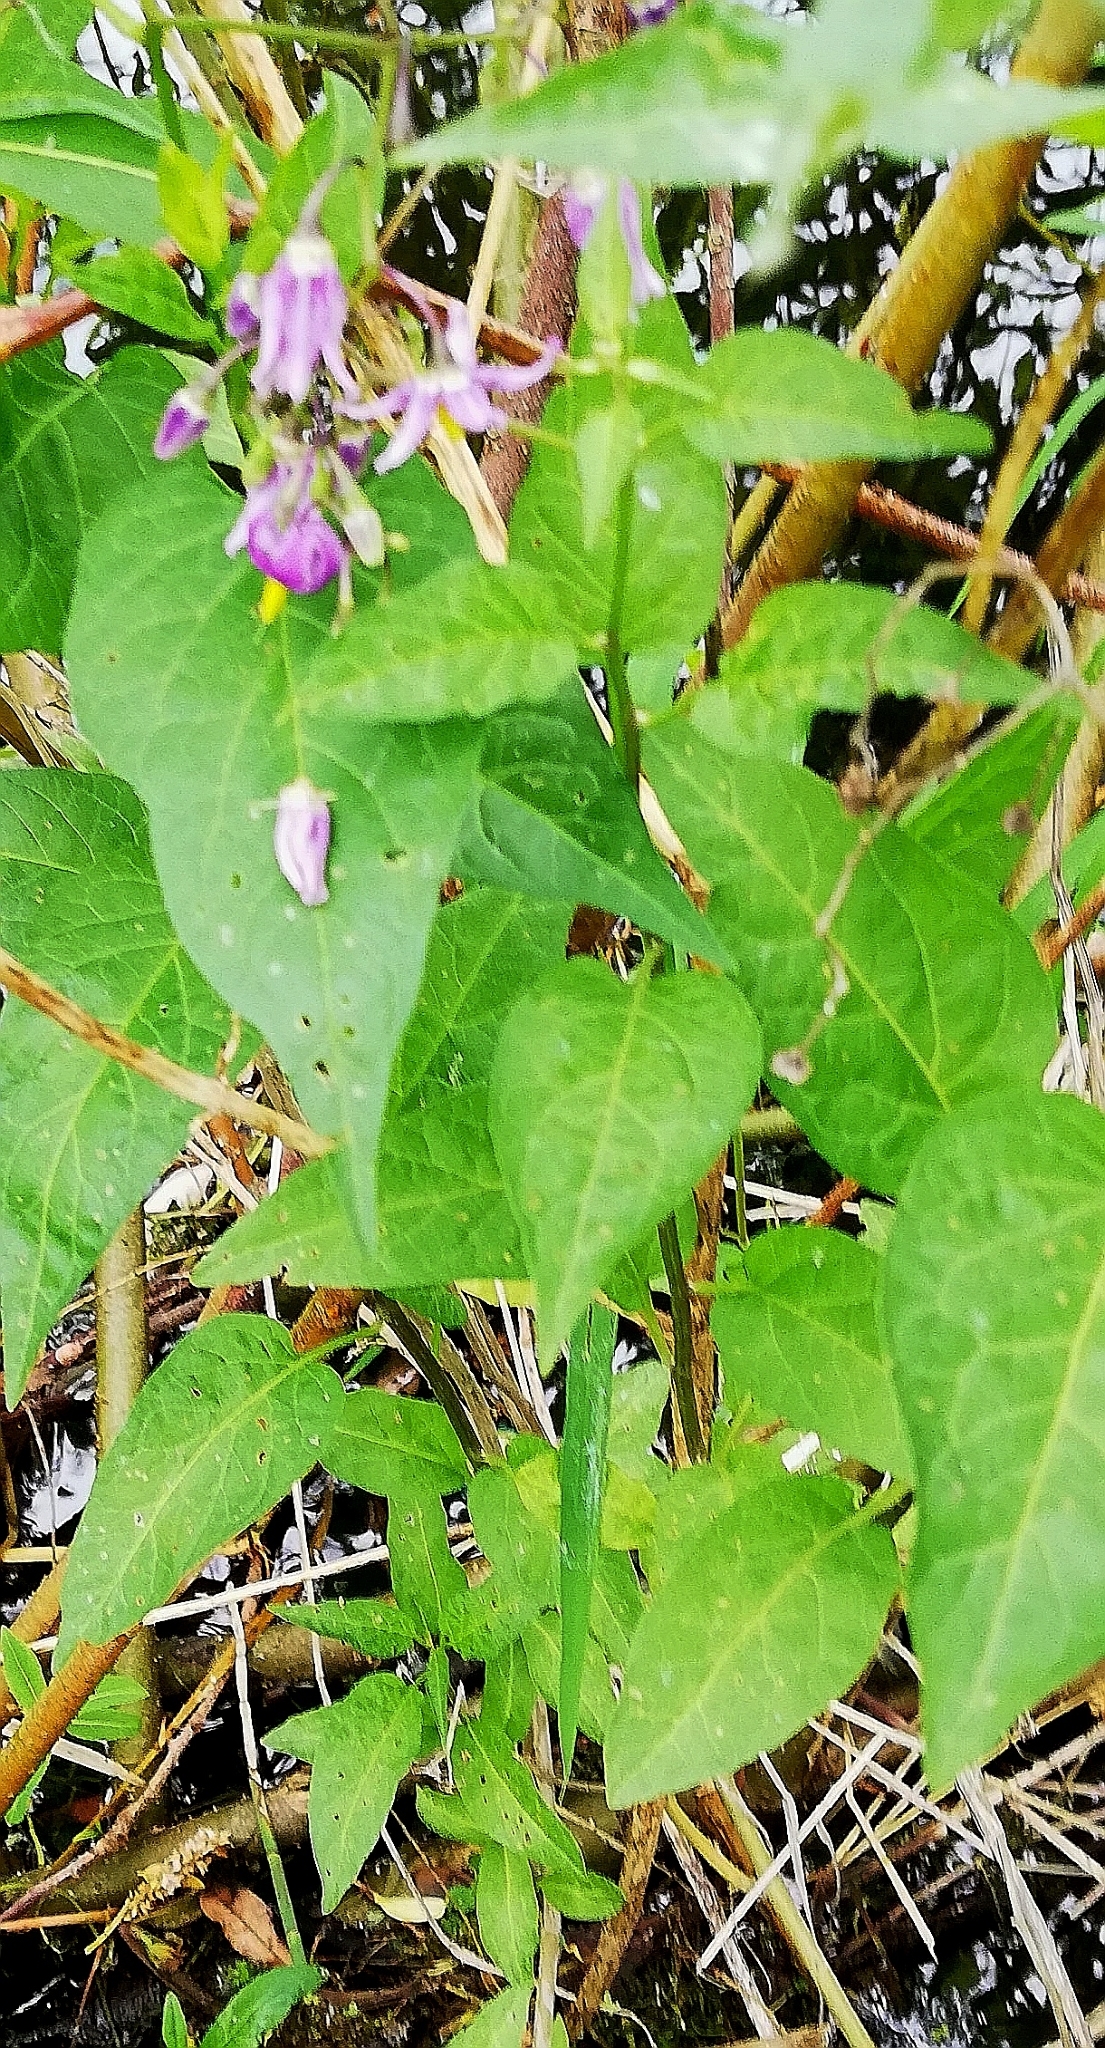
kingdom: Plantae
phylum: Tracheophyta
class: Magnoliopsida
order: Solanales
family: Solanaceae
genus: Solanum
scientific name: Solanum dulcamara
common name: Climbing nightshade
